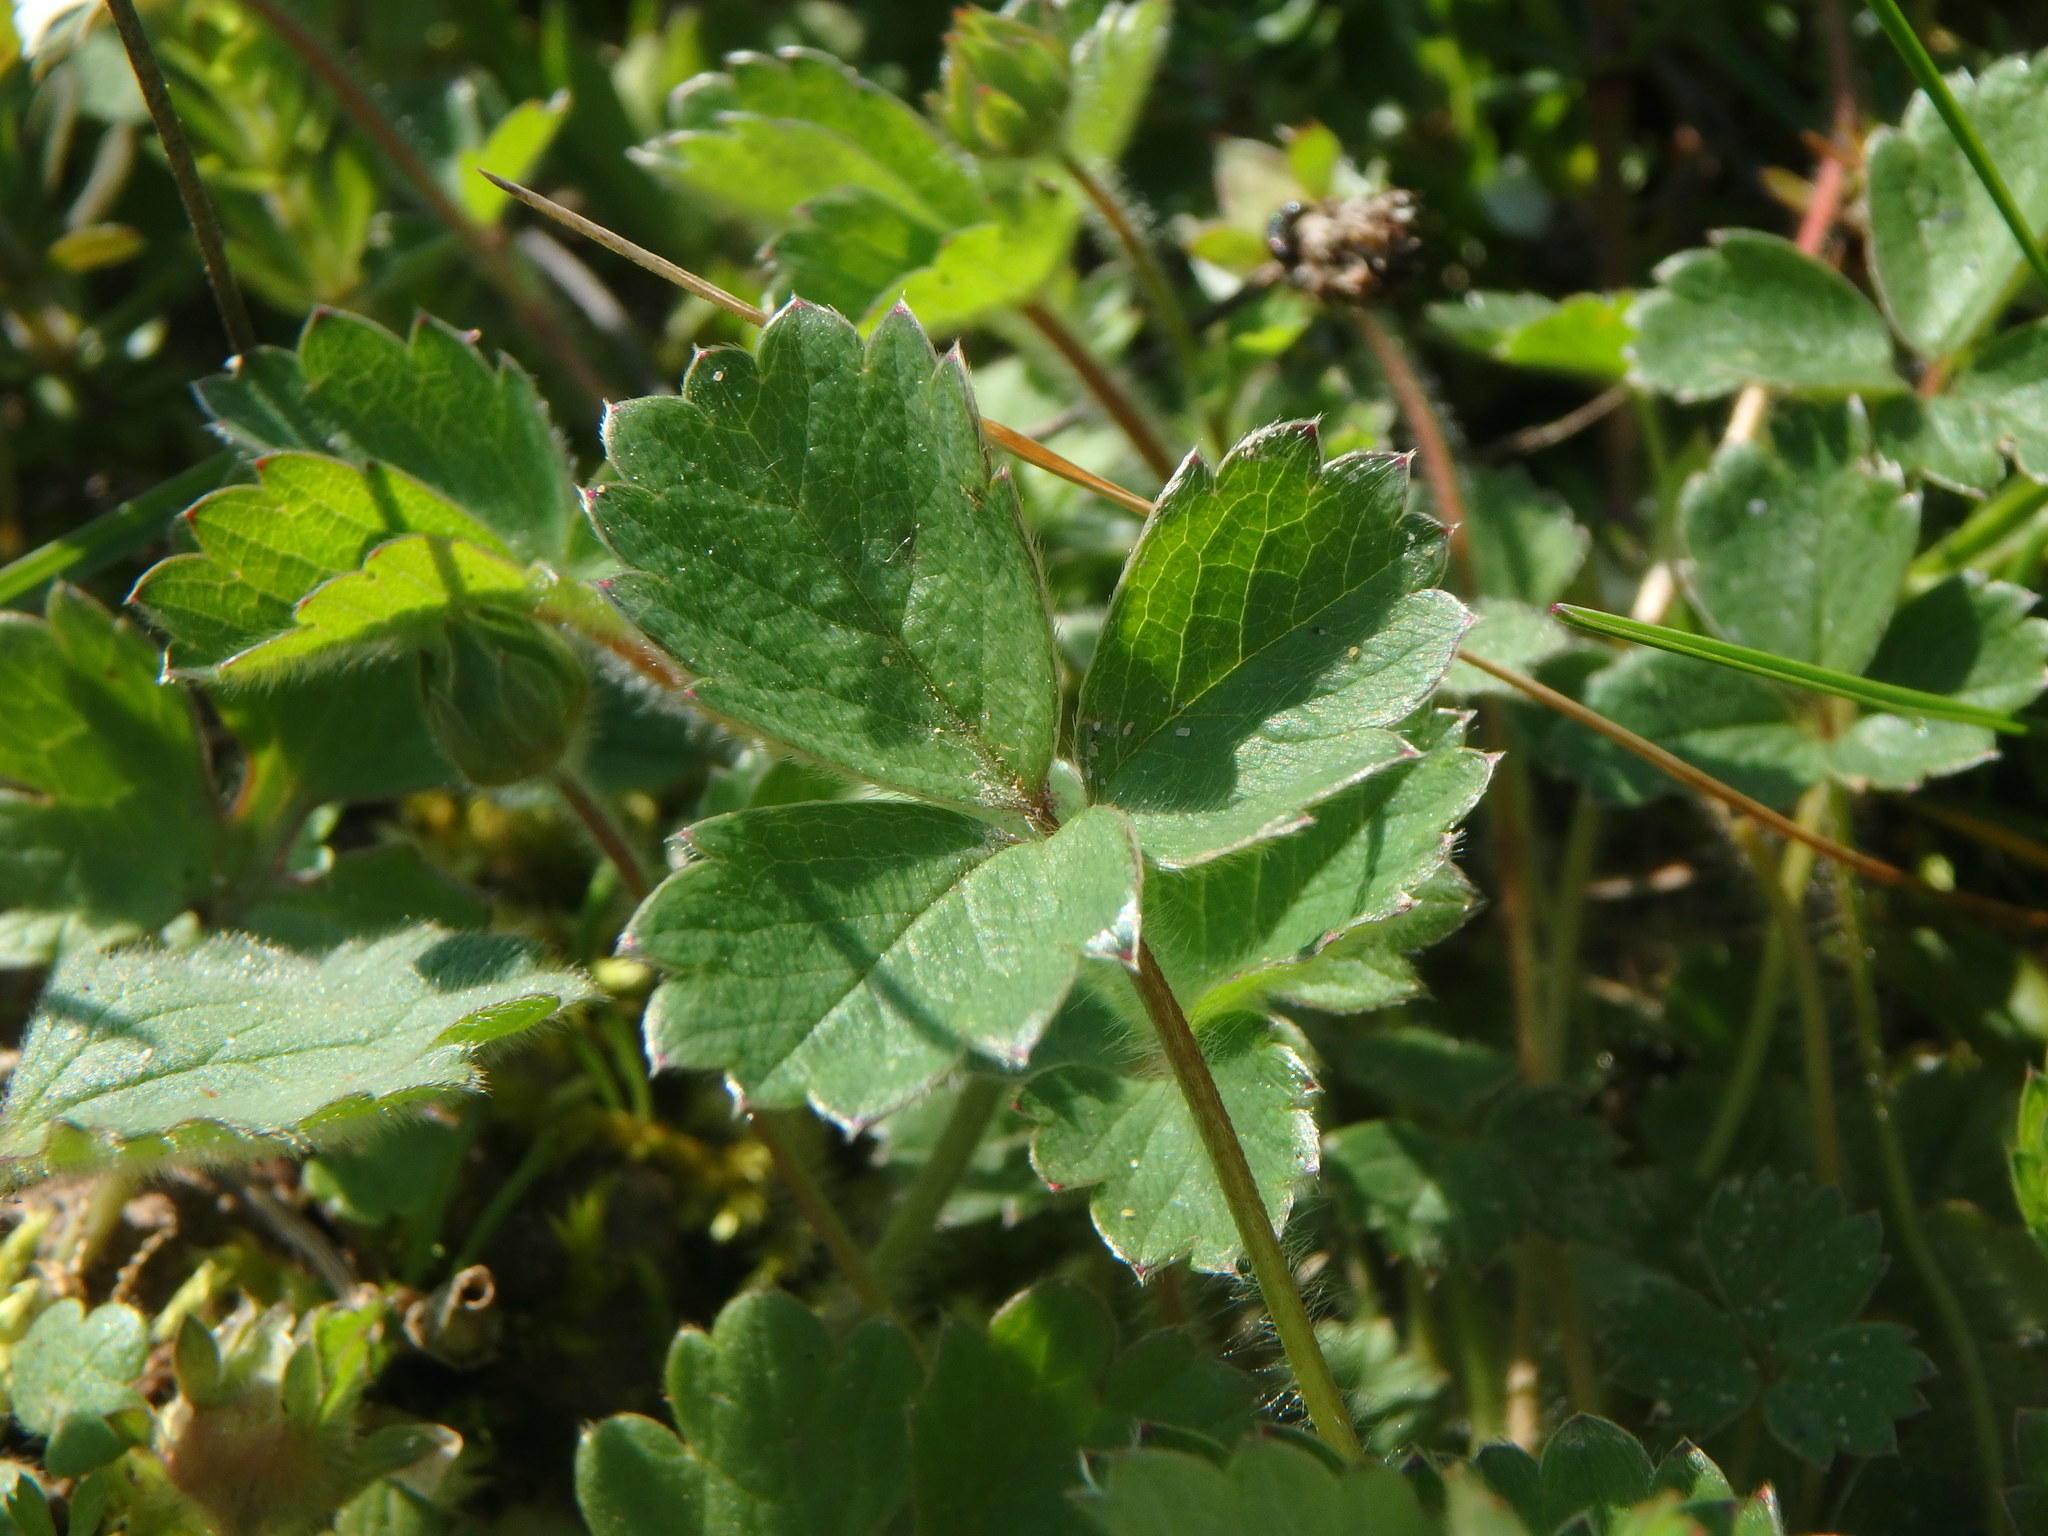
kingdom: Plantae
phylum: Tracheophyta
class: Magnoliopsida
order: Rosales
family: Rosaceae
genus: Potentilla
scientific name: Potentilla sterilis
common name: Barren strawberry
